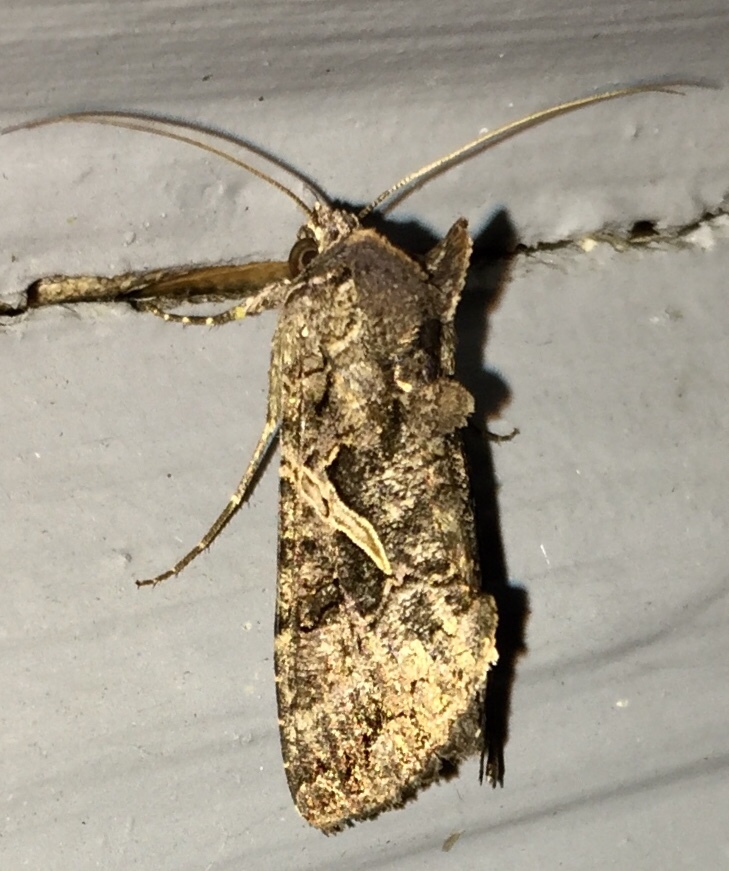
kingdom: Animalia
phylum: Arthropoda
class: Insecta
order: Lepidoptera
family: Noctuidae
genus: Ctenoplusia
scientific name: Ctenoplusia oxygramma
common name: Sharp-stigma looper moth
